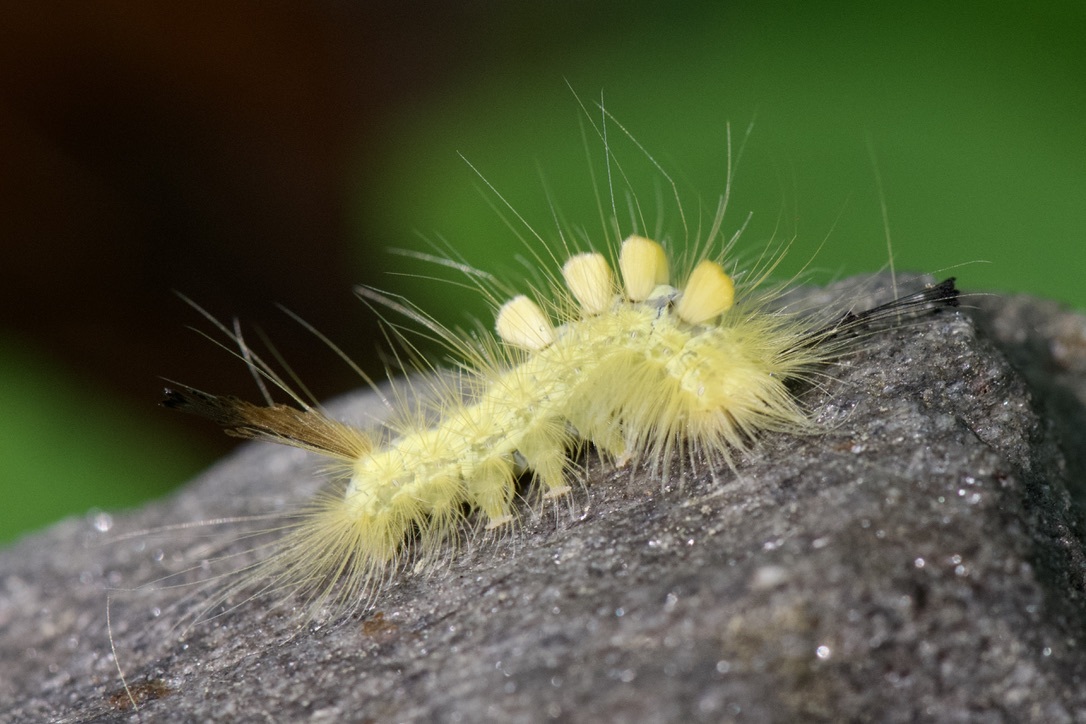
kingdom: Animalia
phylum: Arthropoda
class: Insecta
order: Lepidoptera
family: Erebidae
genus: Orgyia
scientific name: Orgyia definita
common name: Definite tussock moth
